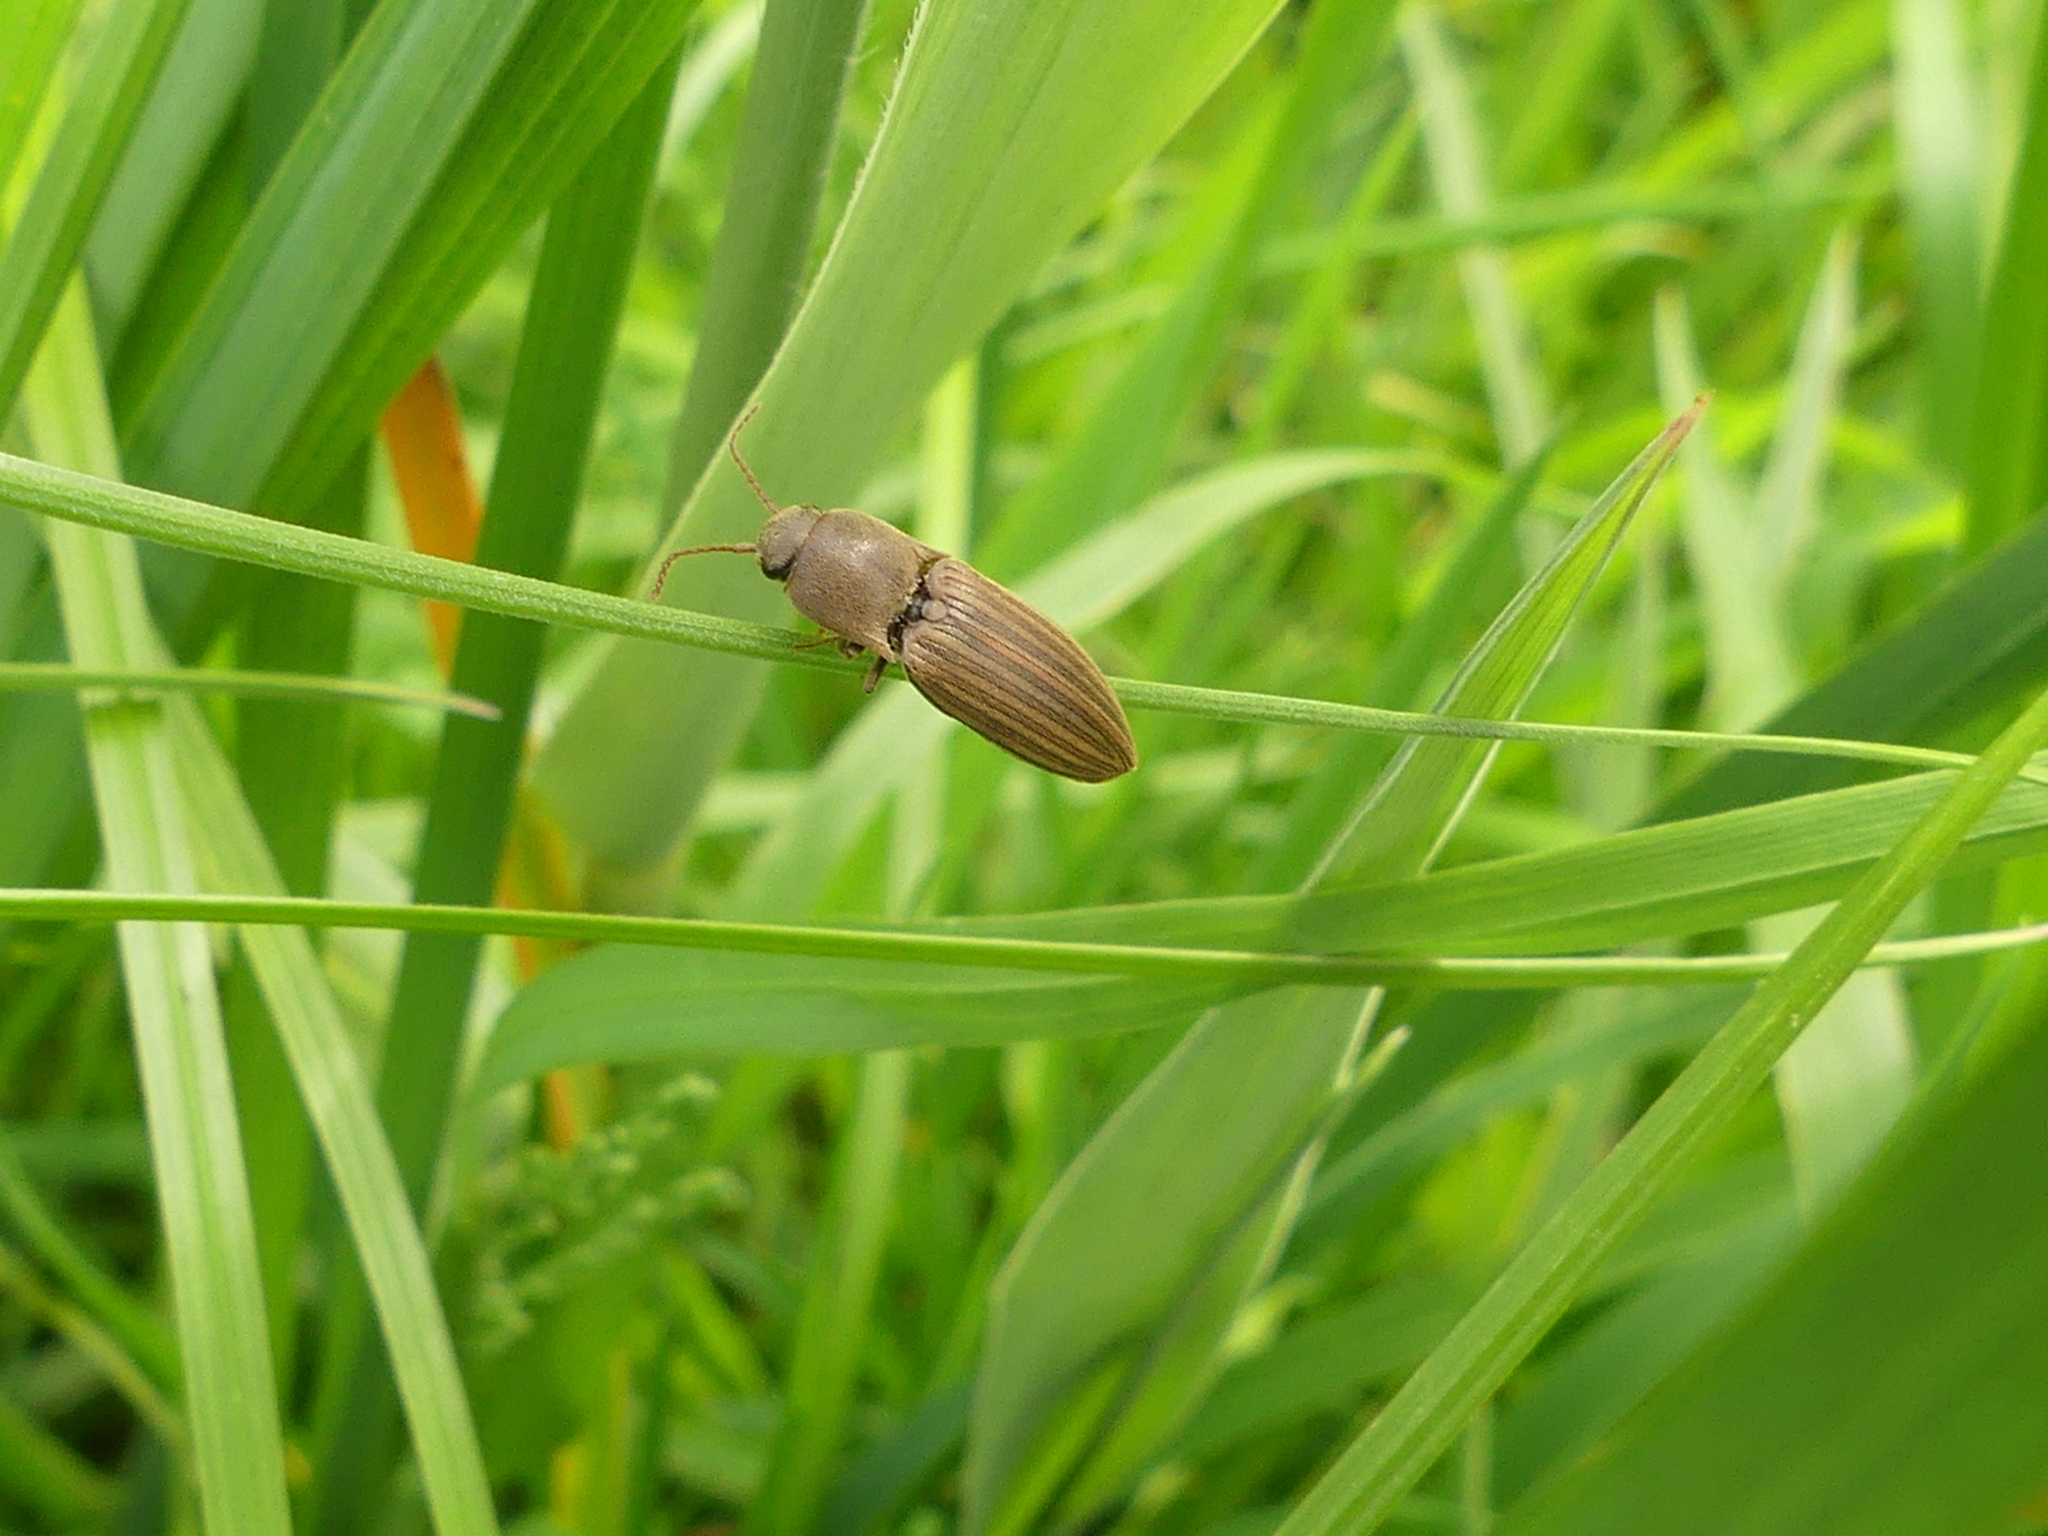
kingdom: Animalia
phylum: Arthropoda
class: Insecta
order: Coleoptera
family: Elateridae
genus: Agriotes
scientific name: Agriotes lineatus
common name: Lined click beetle
